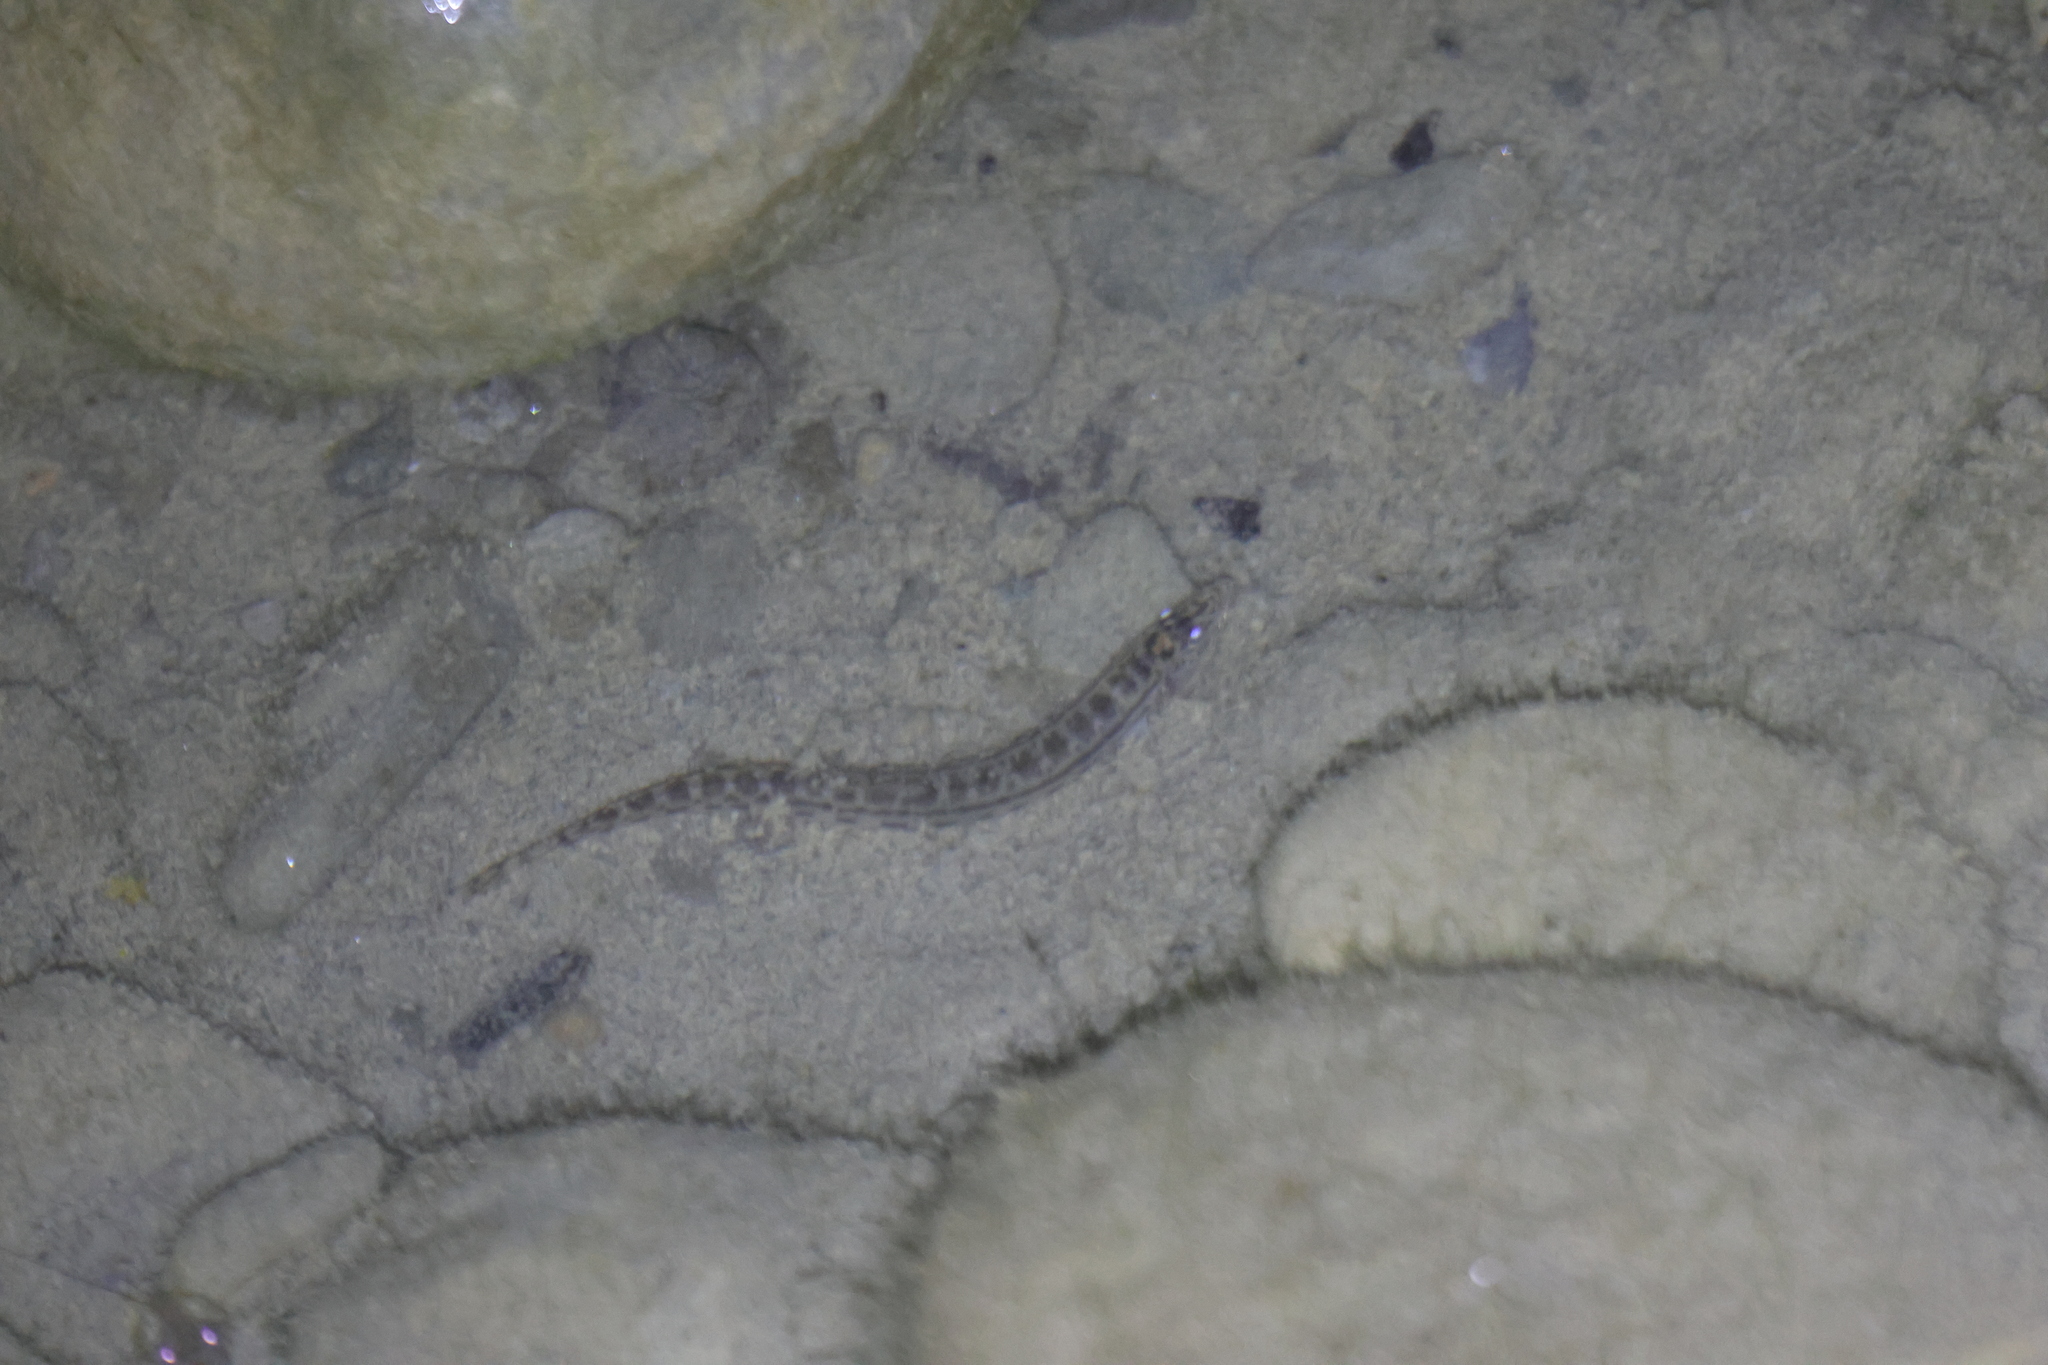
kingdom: Animalia
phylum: Chordata
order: Cypriniformes
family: Cobitidae
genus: Cobitis
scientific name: Cobitis sinensis
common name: Siberian spiny loach
